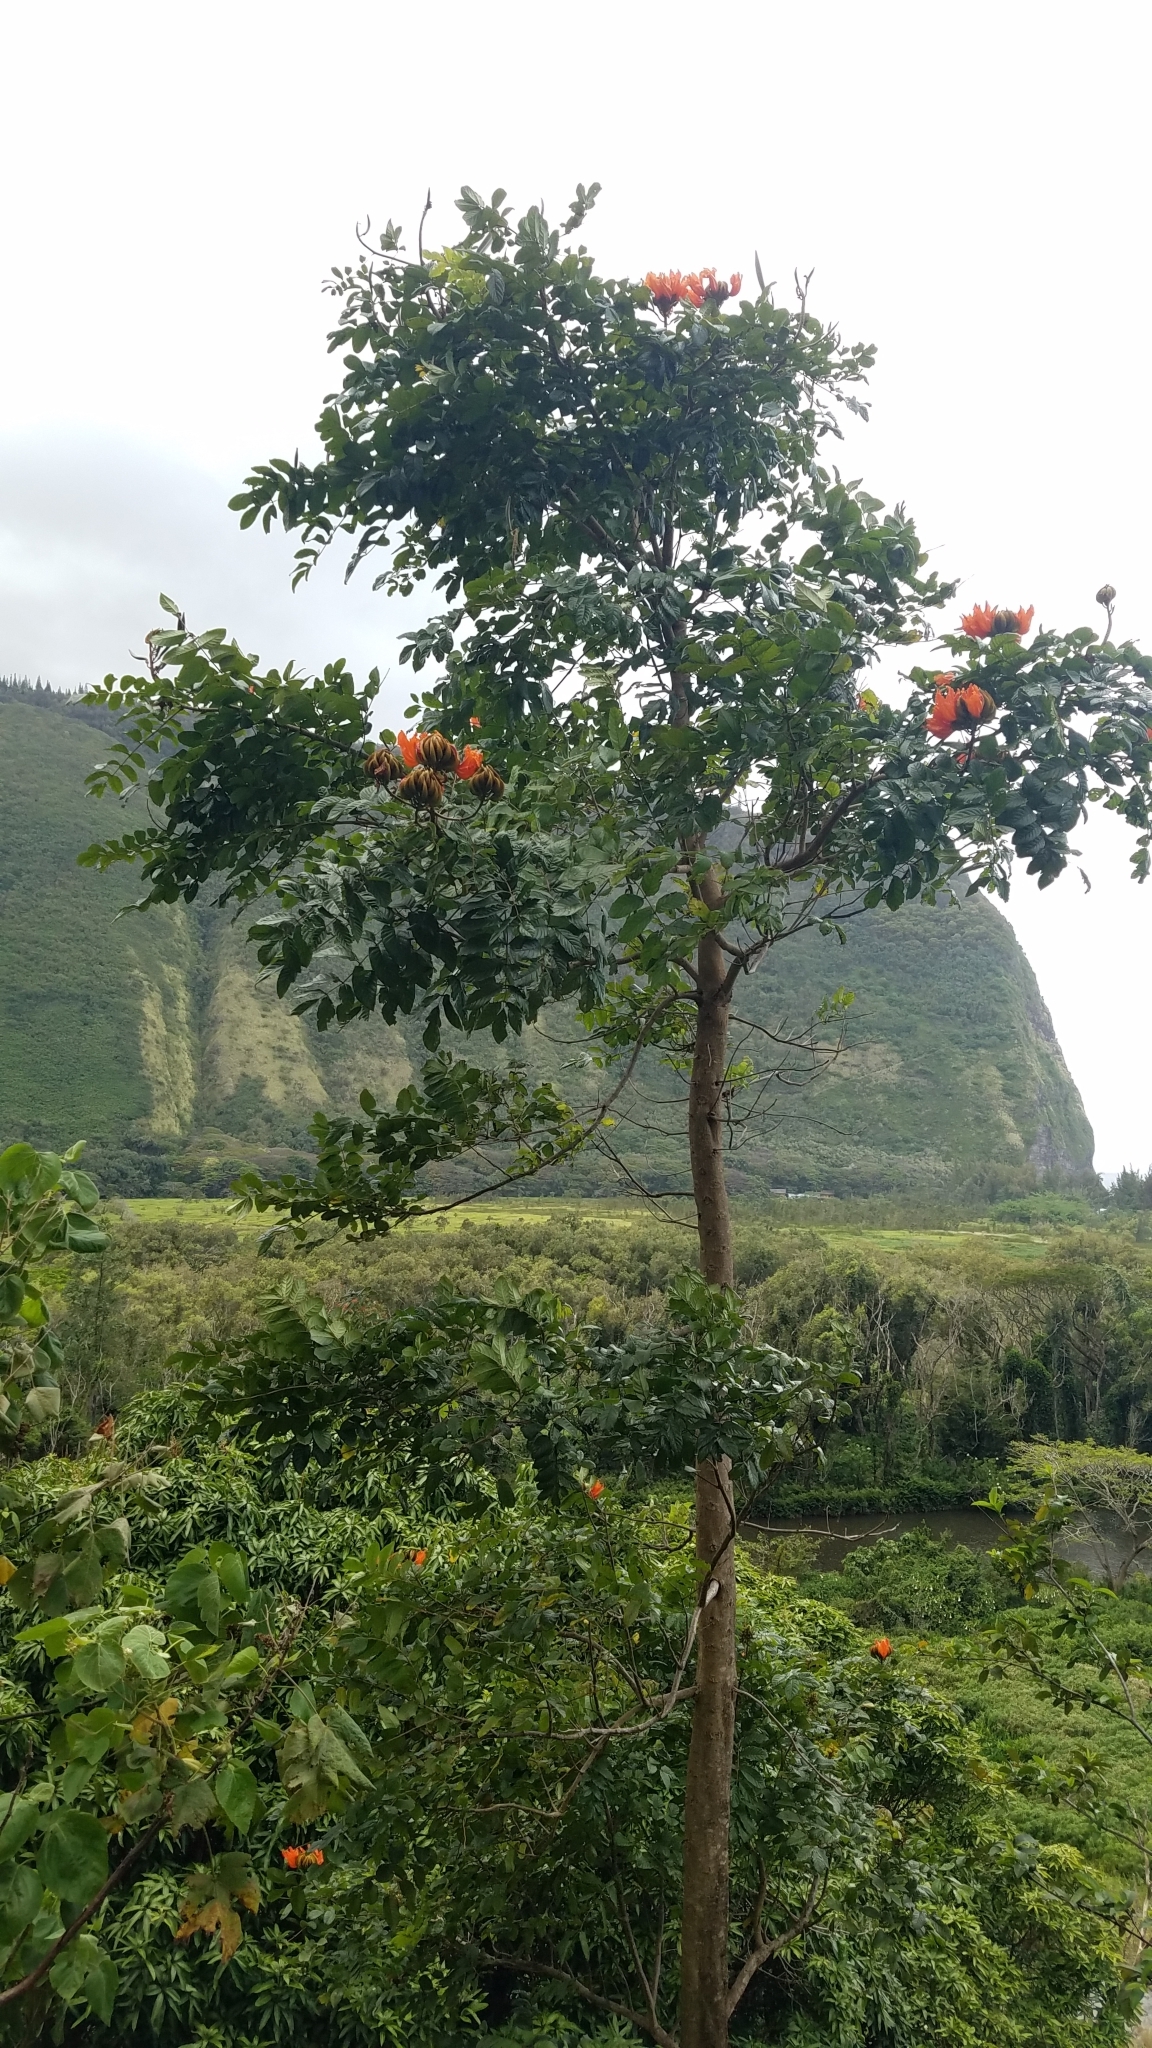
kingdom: Plantae
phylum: Tracheophyta
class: Magnoliopsida
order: Lamiales
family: Bignoniaceae
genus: Spathodea
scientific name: Spathodea campanulata
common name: African tuliptree
